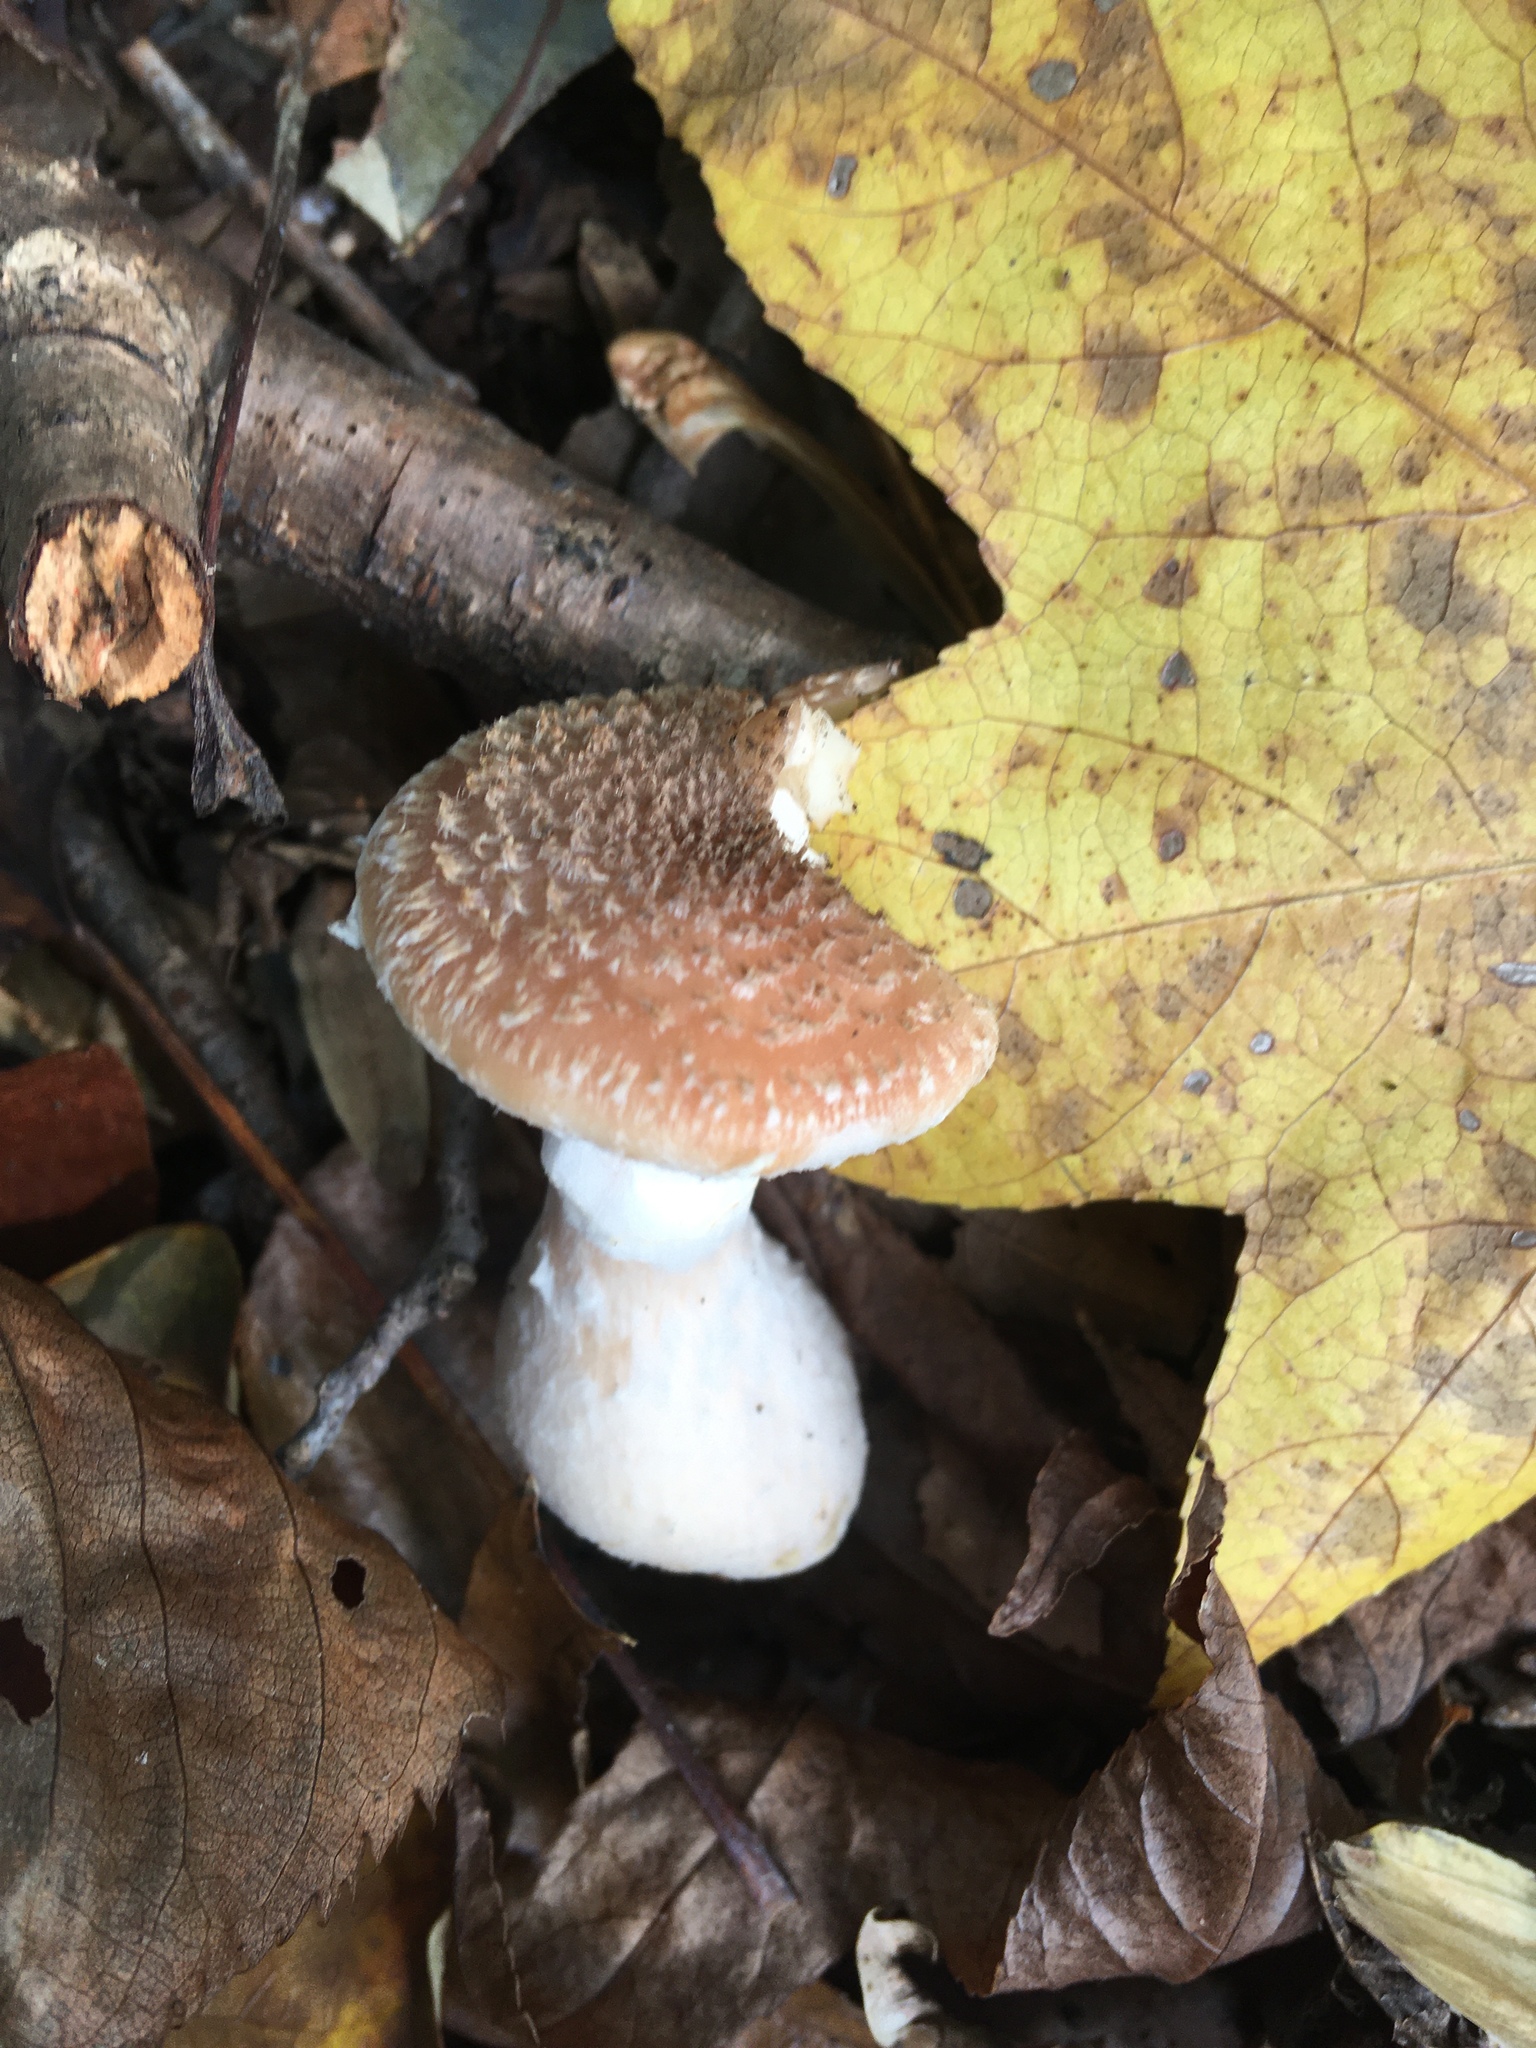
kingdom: Fungi
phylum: Basidiomycota
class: Agaricomycetes
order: Agaricales
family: Physalacriaceae
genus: Armillaria
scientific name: Armillaria gallica
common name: Bulbous honey fungus
